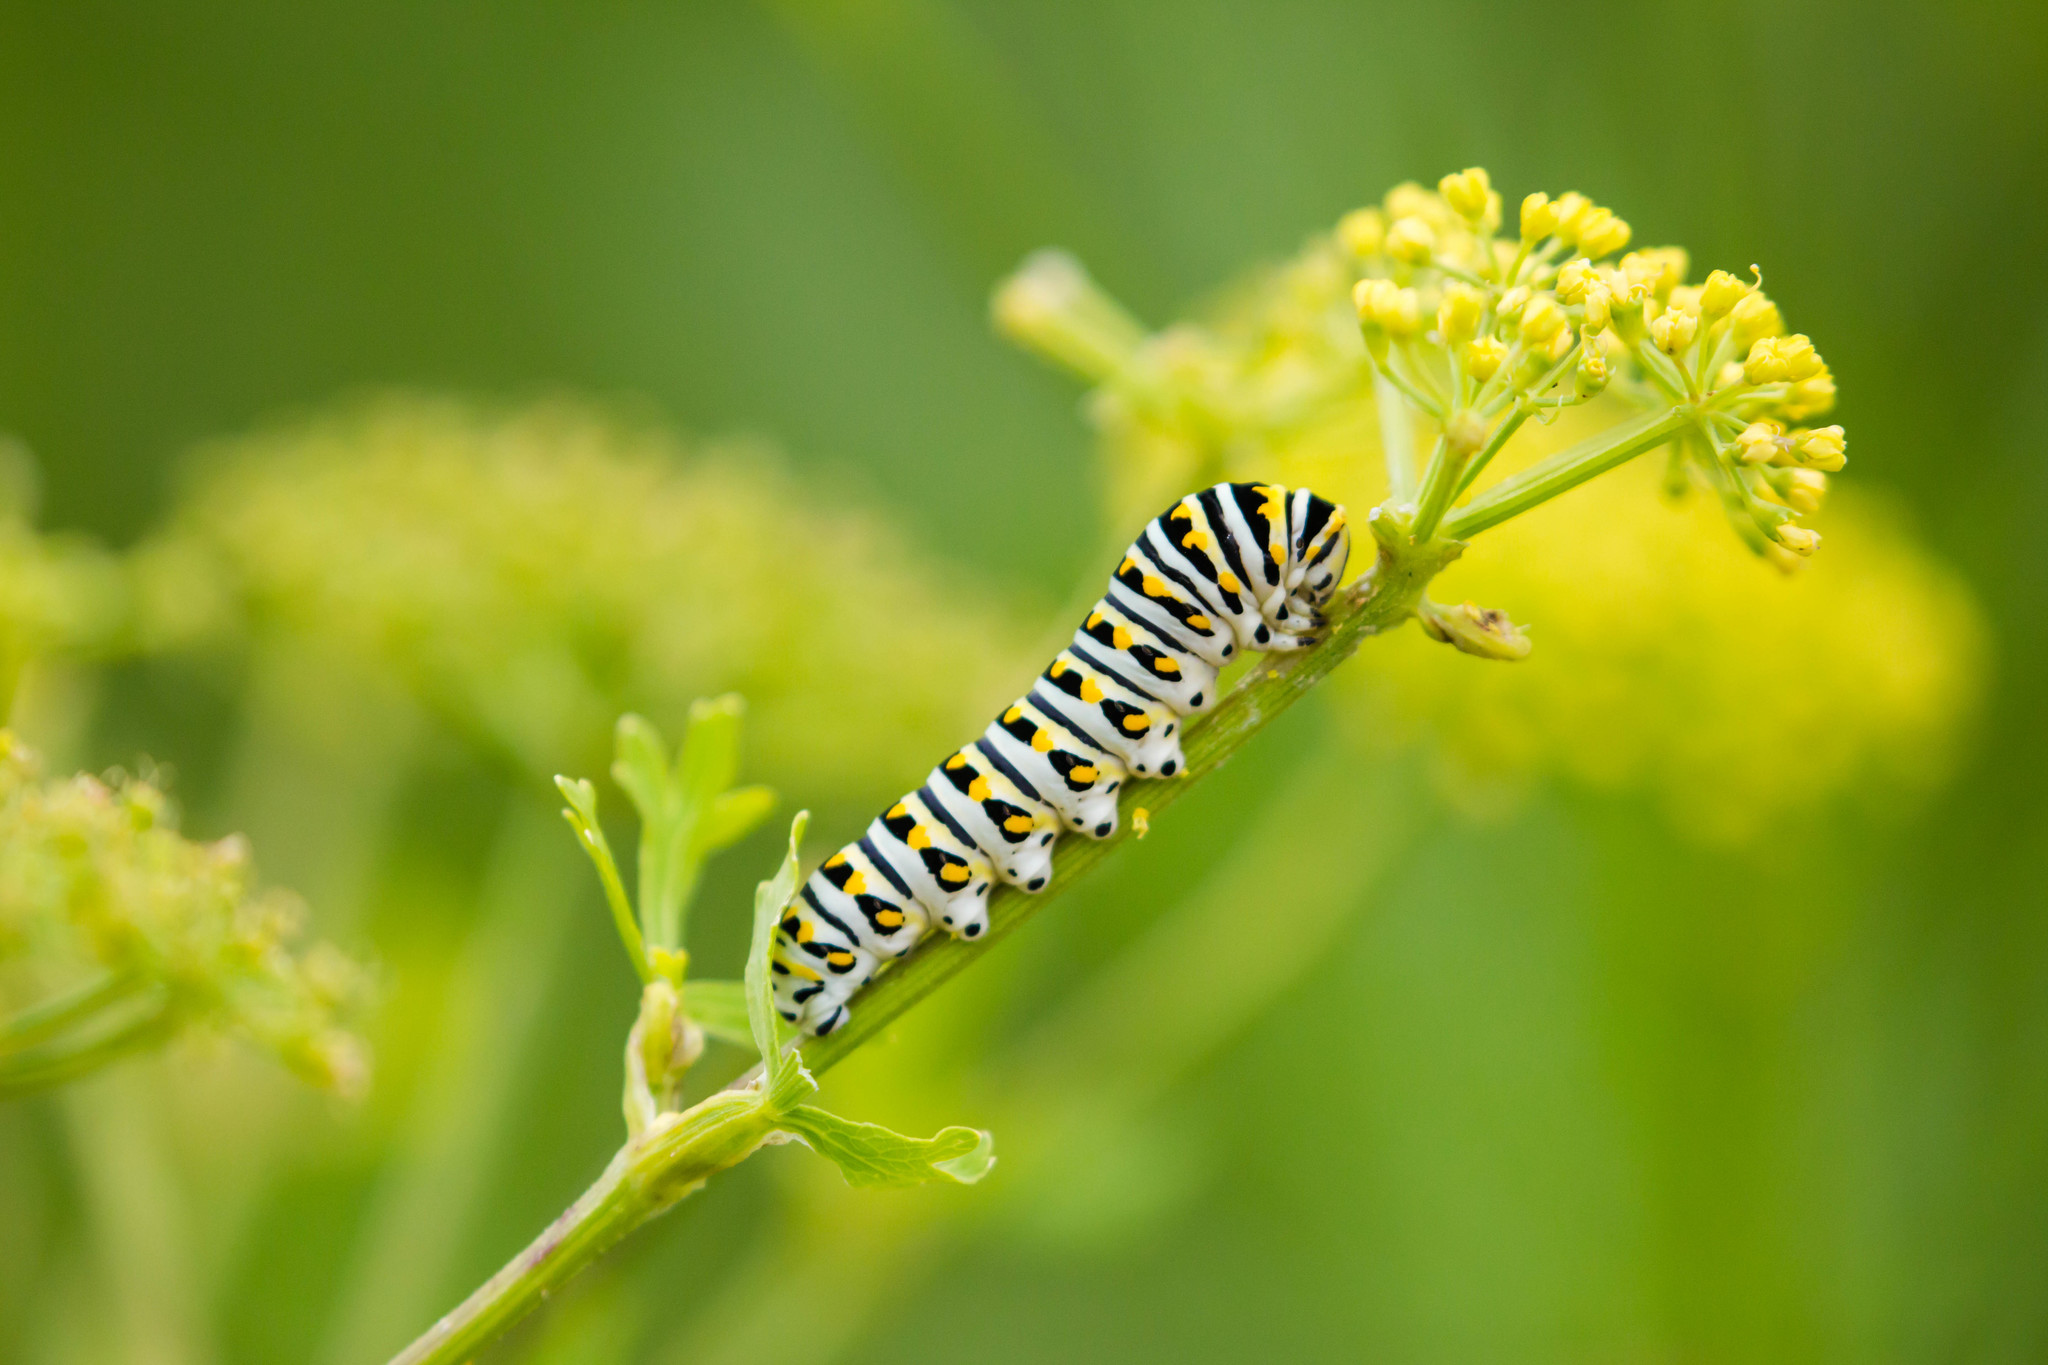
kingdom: Animalia
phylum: Arthropoda
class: Insecta
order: Lepidoptera
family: Papilionidae
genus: Papilio
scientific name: Papilio polyxenes
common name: Black swallowtail
